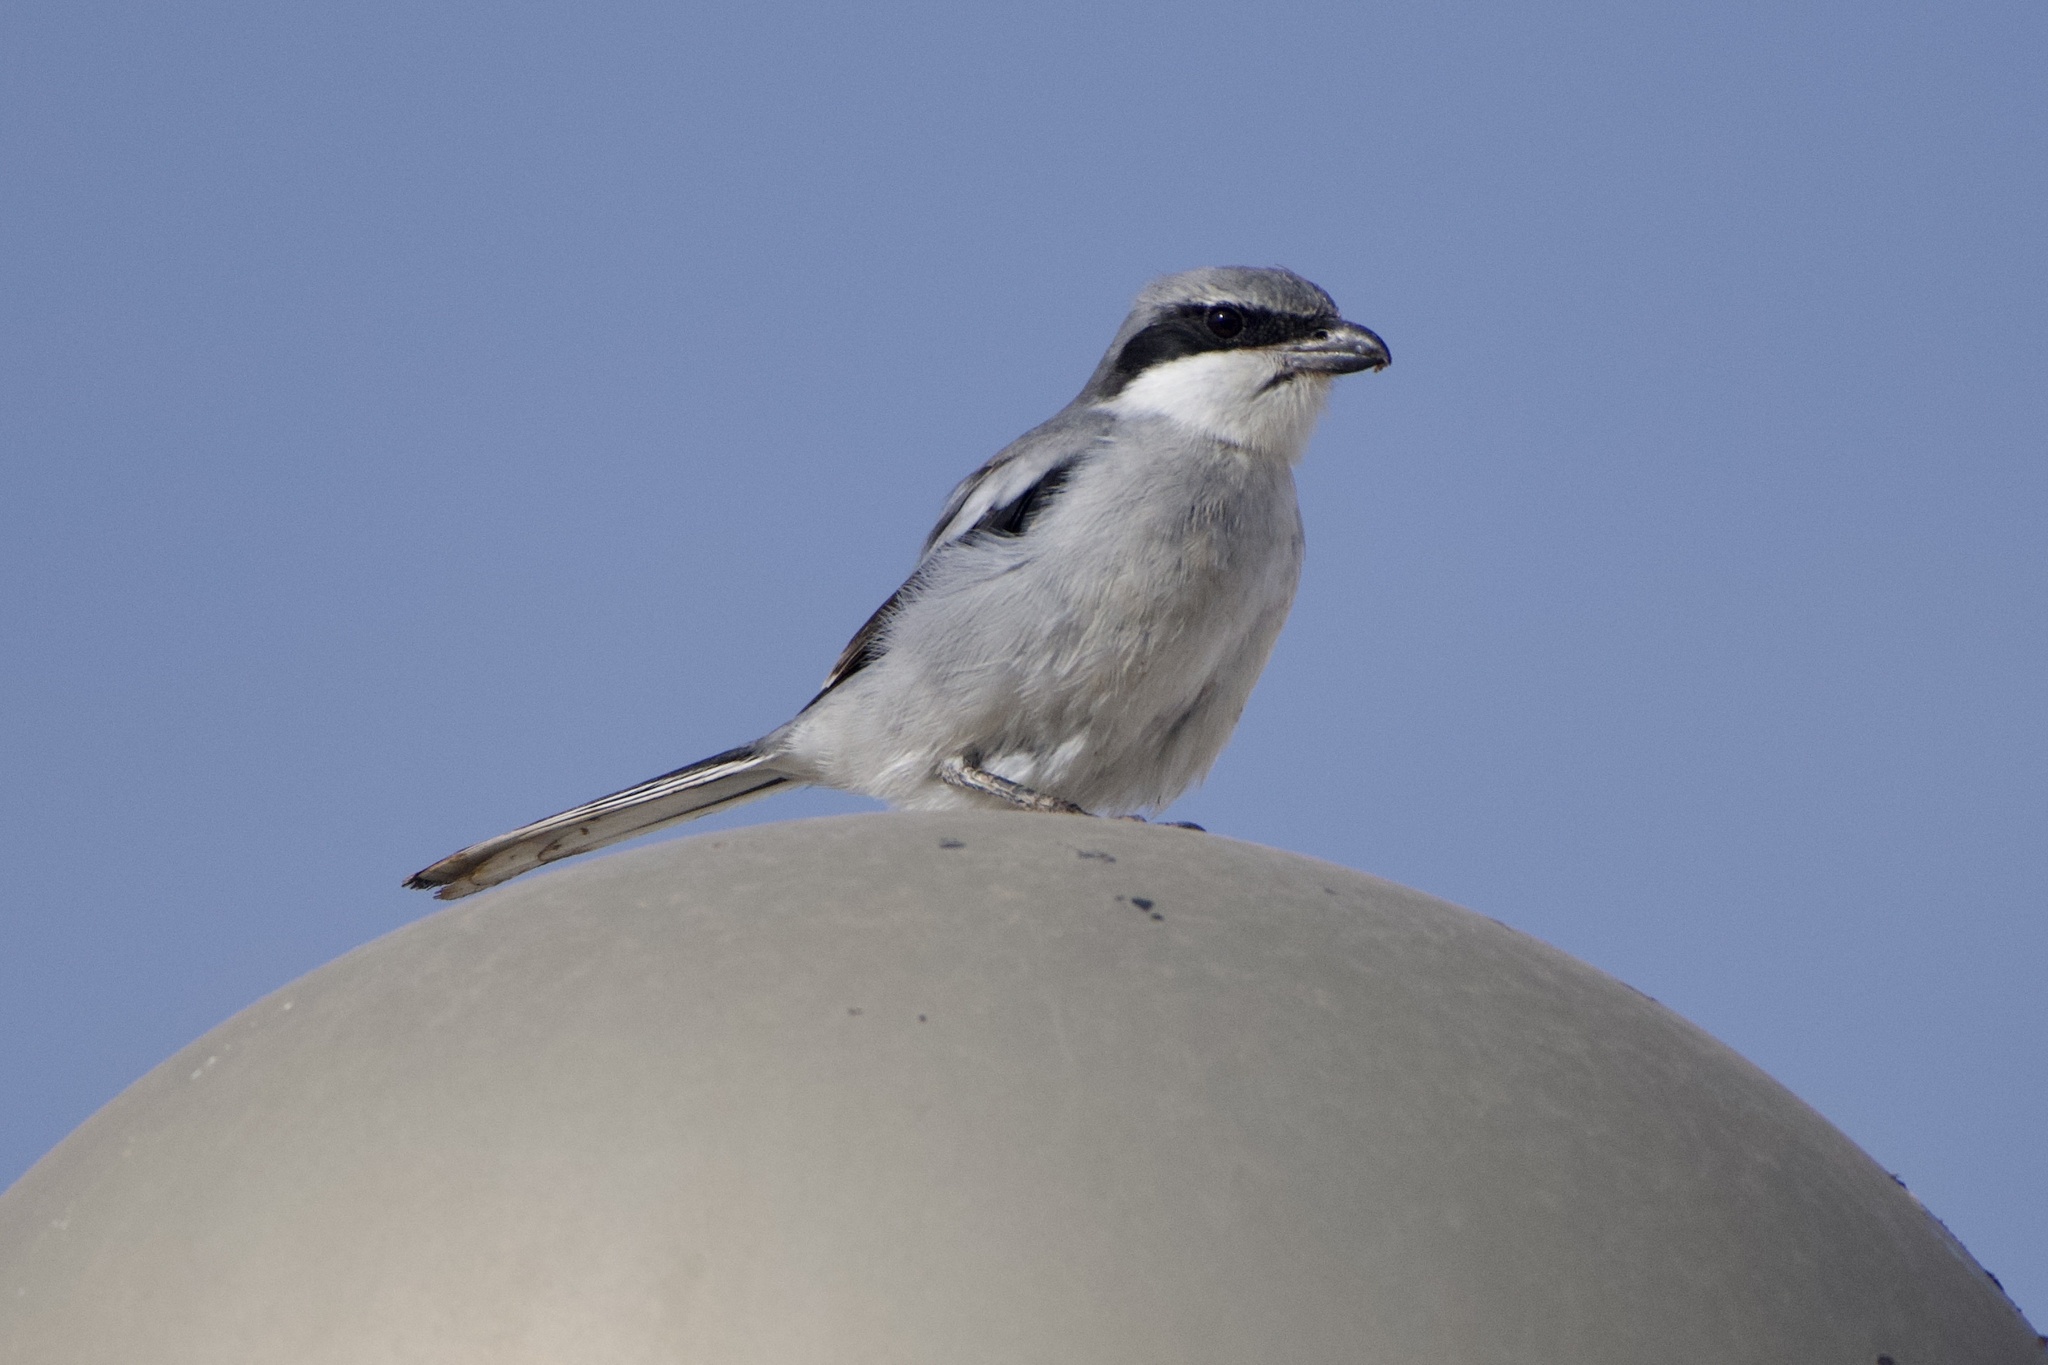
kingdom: Animalia
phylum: Chordata
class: Aves
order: Passeriformes
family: Laniidae
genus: Lanius
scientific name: Lanius excubitor
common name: Great grey shrike
